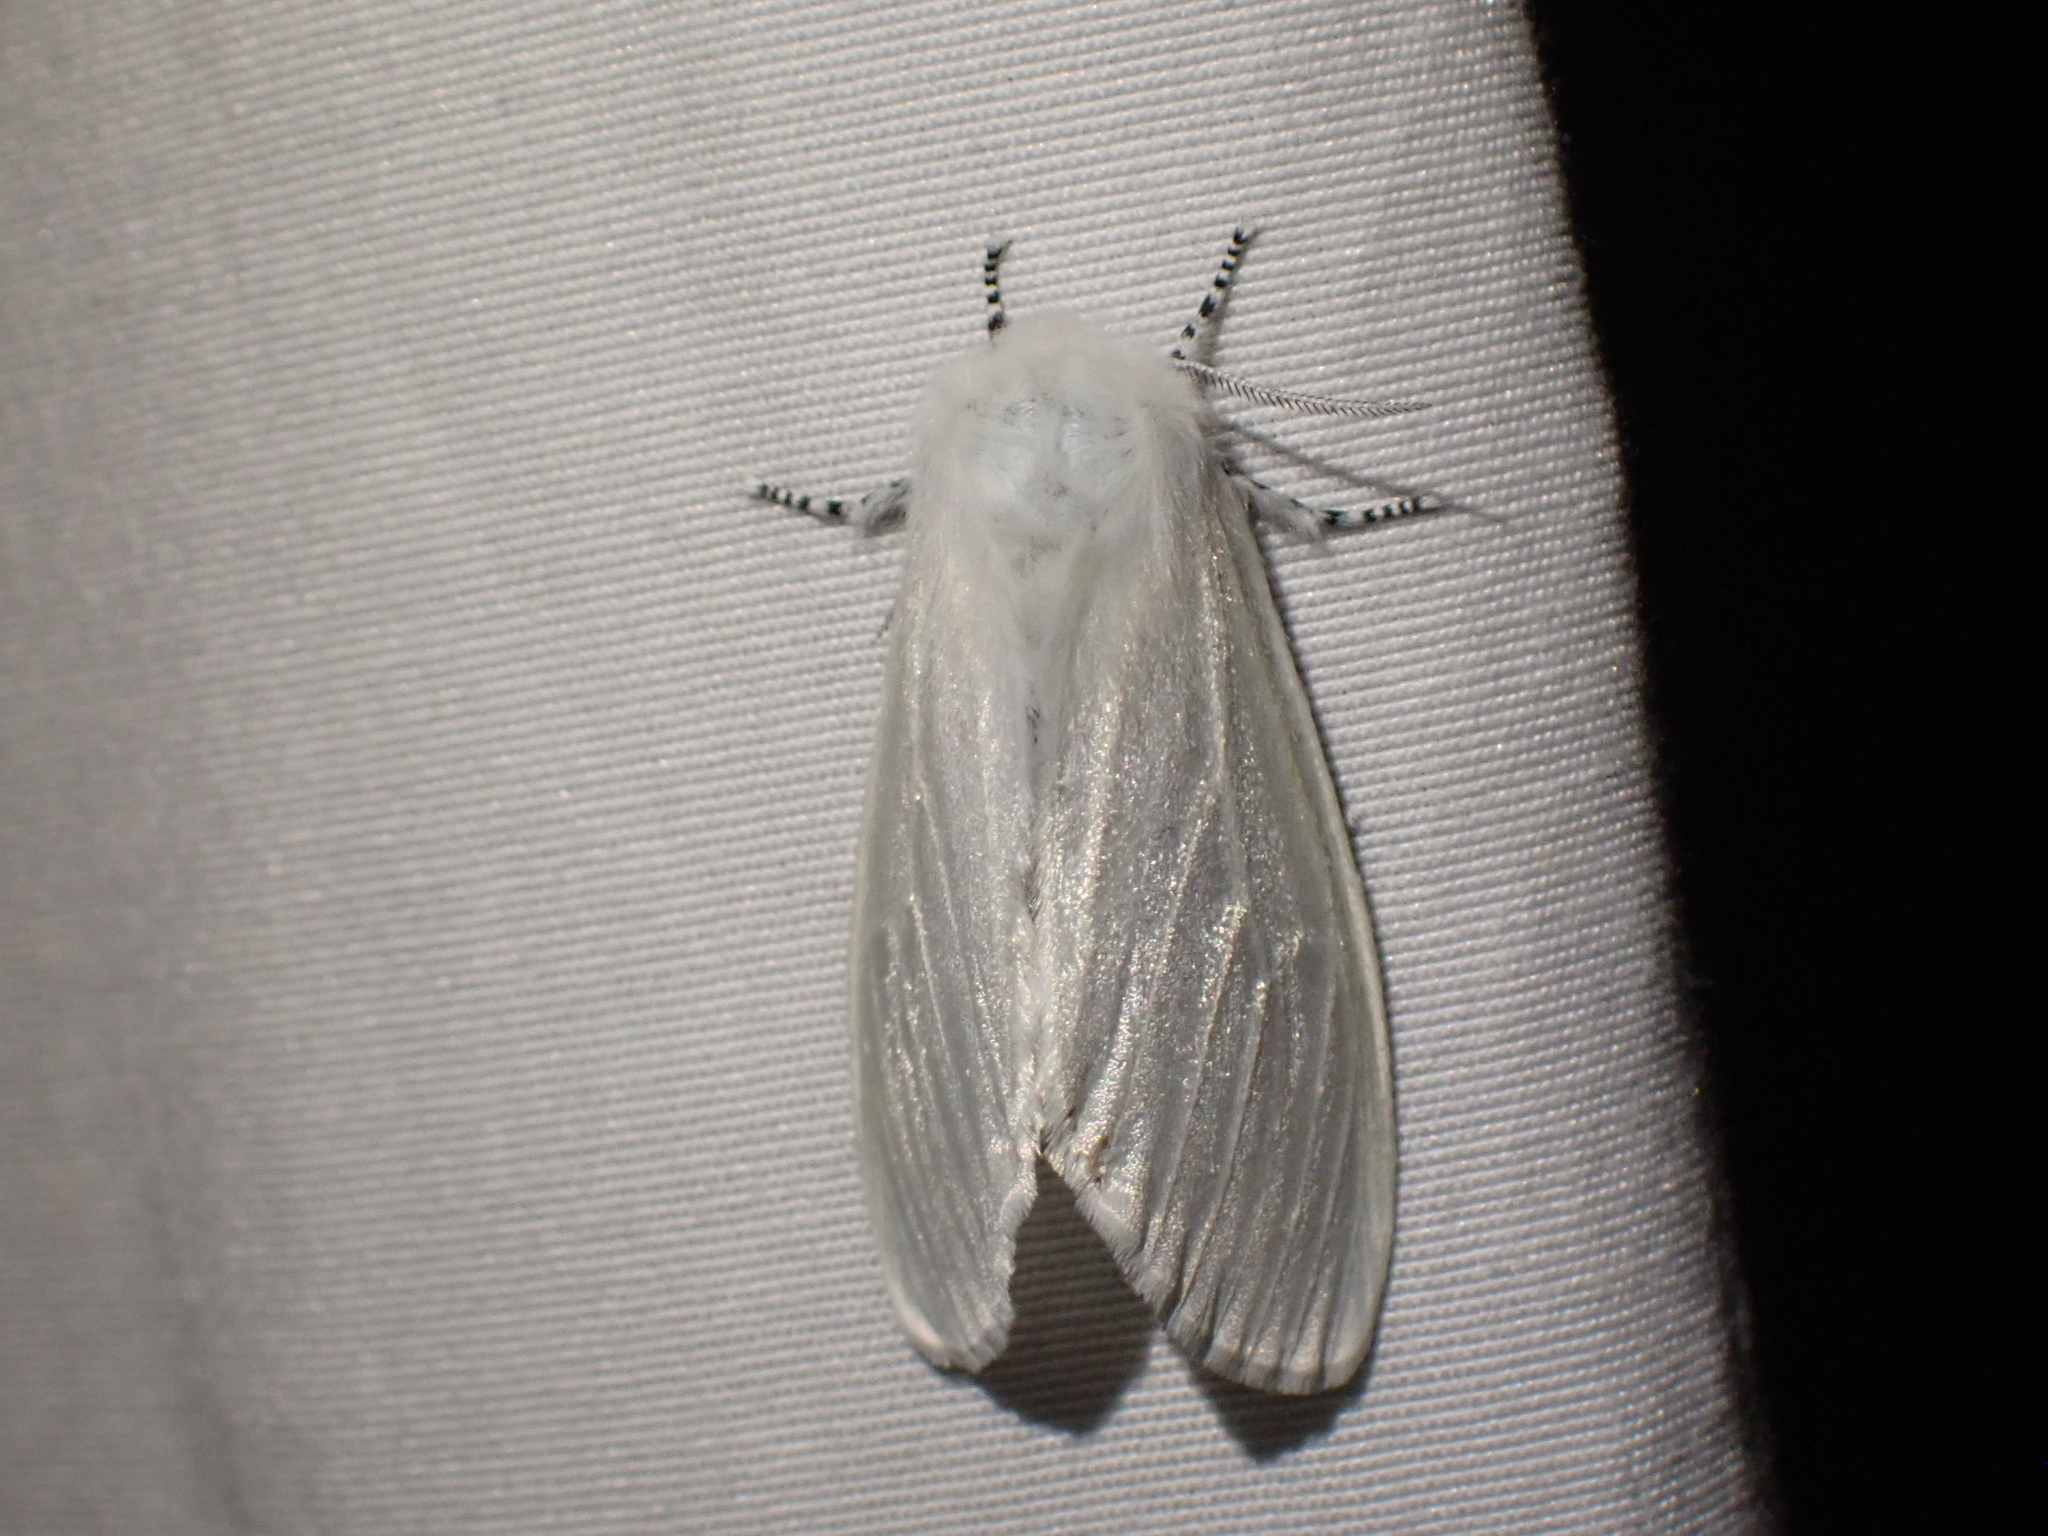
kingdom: Animalia
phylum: Arthropoda
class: Insecta
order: Lepidoptera
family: Erebidae
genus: Leucoma
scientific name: Leucoma salicis
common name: White satin moth
